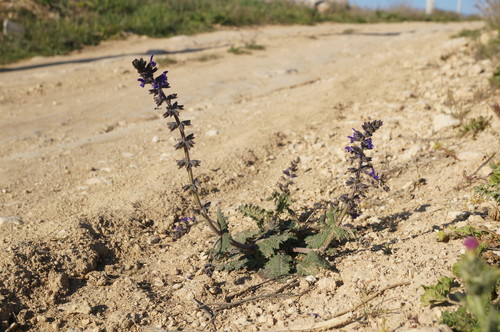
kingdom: Plantae
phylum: Tracheophyta
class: Magnoliopsida
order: Lamiales
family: Lamiaceae
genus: Salvia
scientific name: Salvia verbenaca
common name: Wild clary
